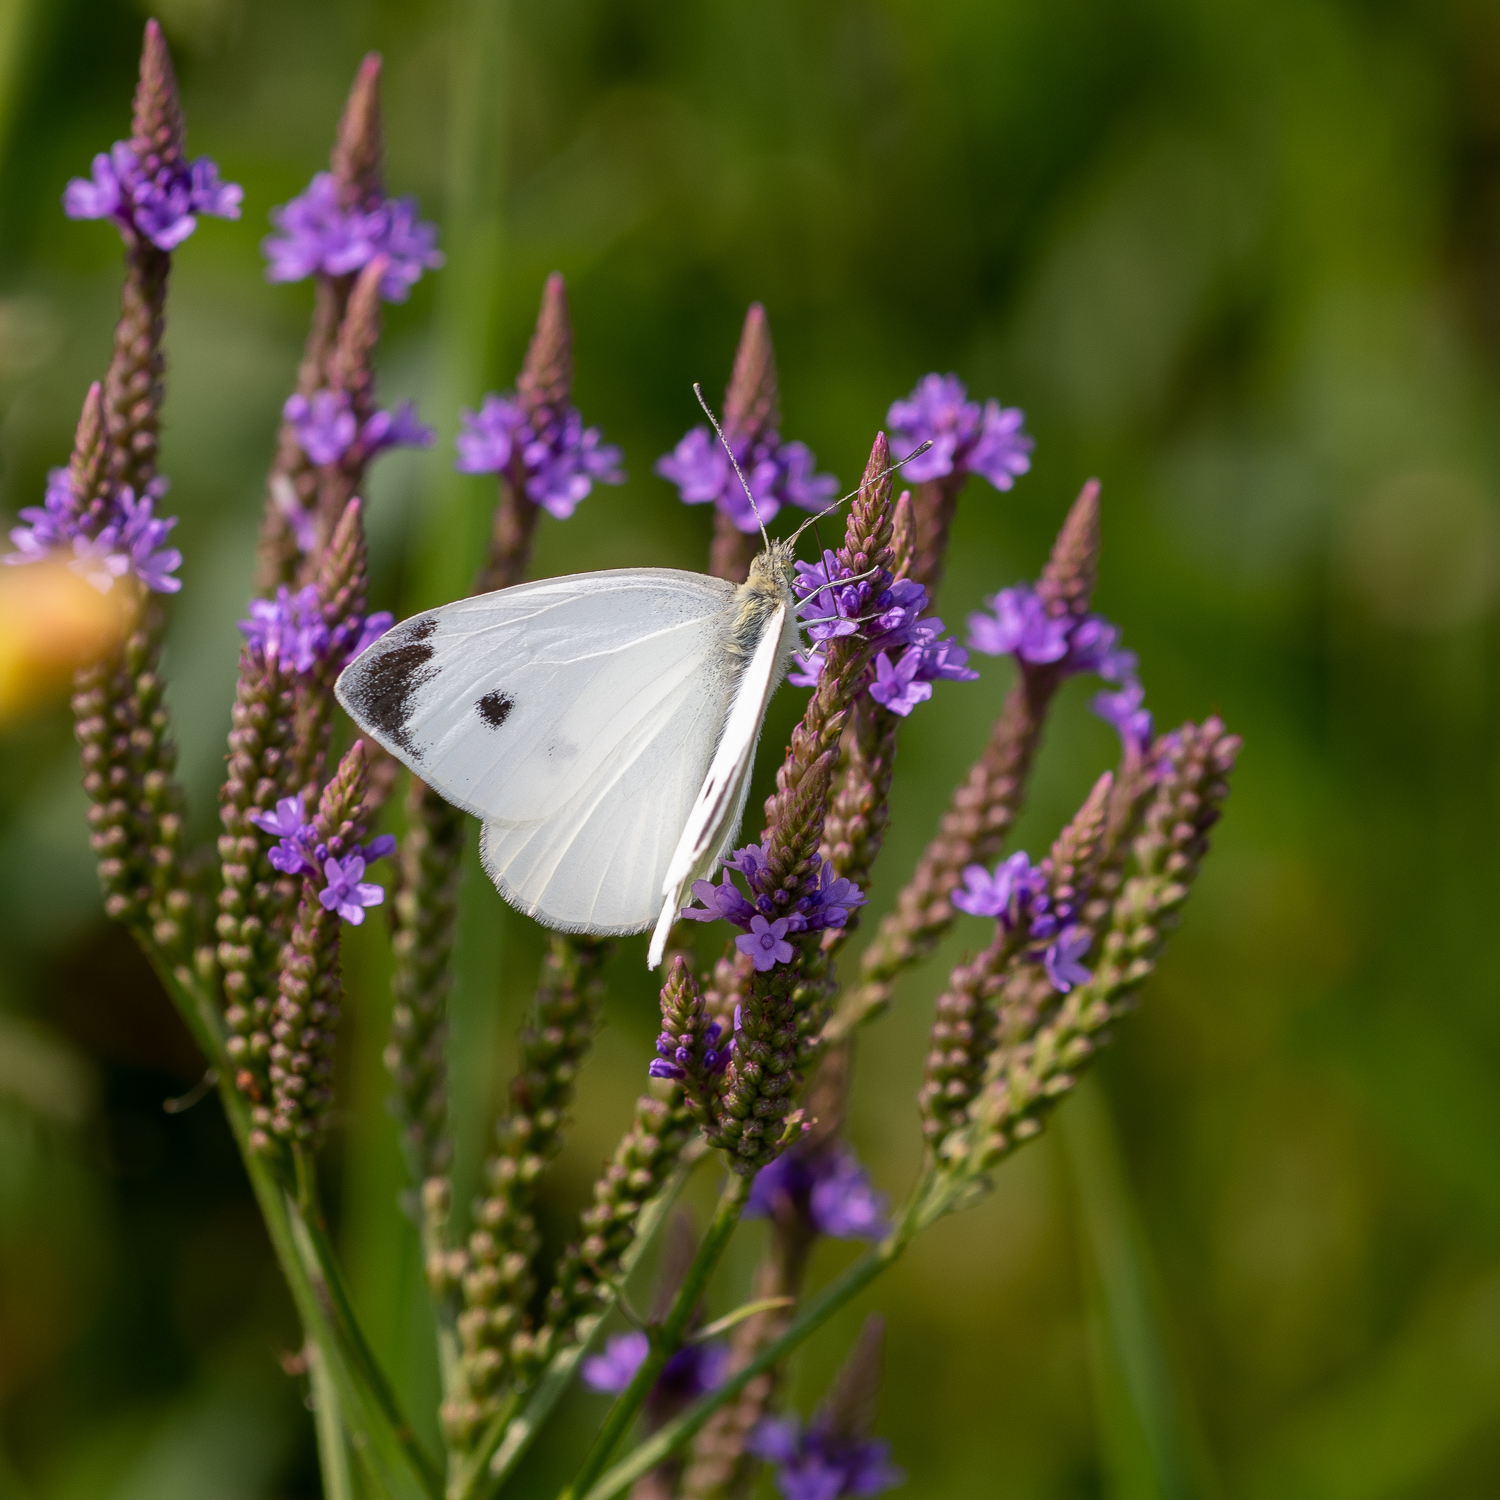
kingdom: Animalia
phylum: Arthropoda
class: Insecta
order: Lepidoptera
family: Pieridae
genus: Pieris
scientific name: Pieris rapae
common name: Small white
